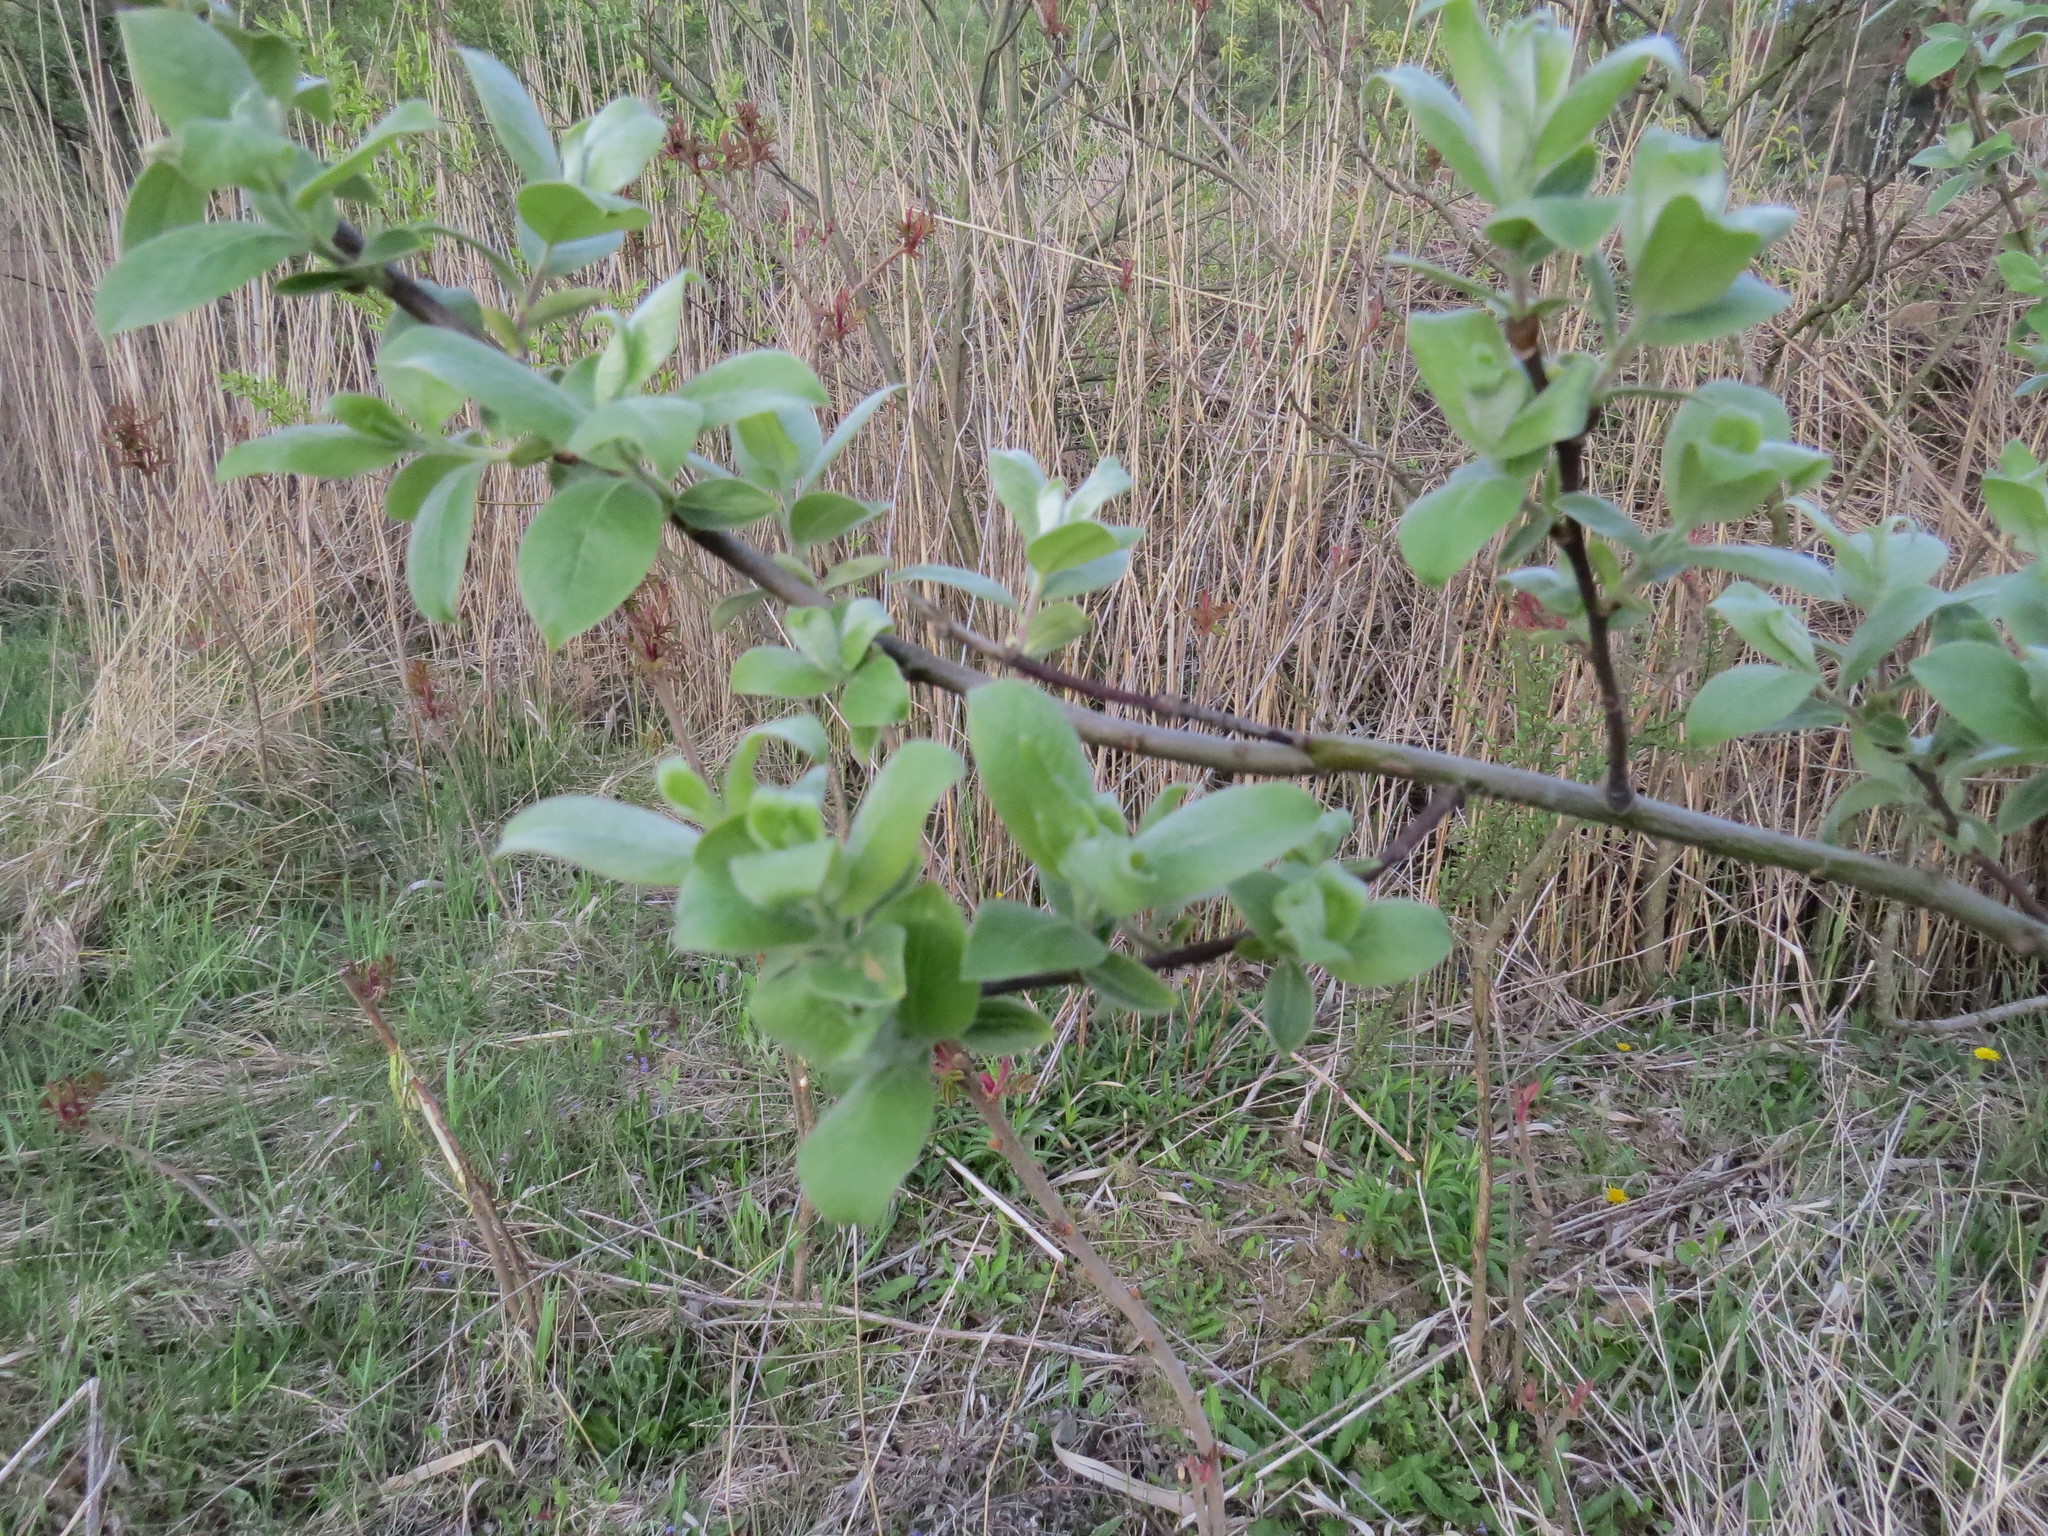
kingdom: Plantae
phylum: Tracheophyta
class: Magnoliopsida
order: Malpighiales
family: Salicaceae
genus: Salix
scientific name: Salix cinerea
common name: Common sallow
